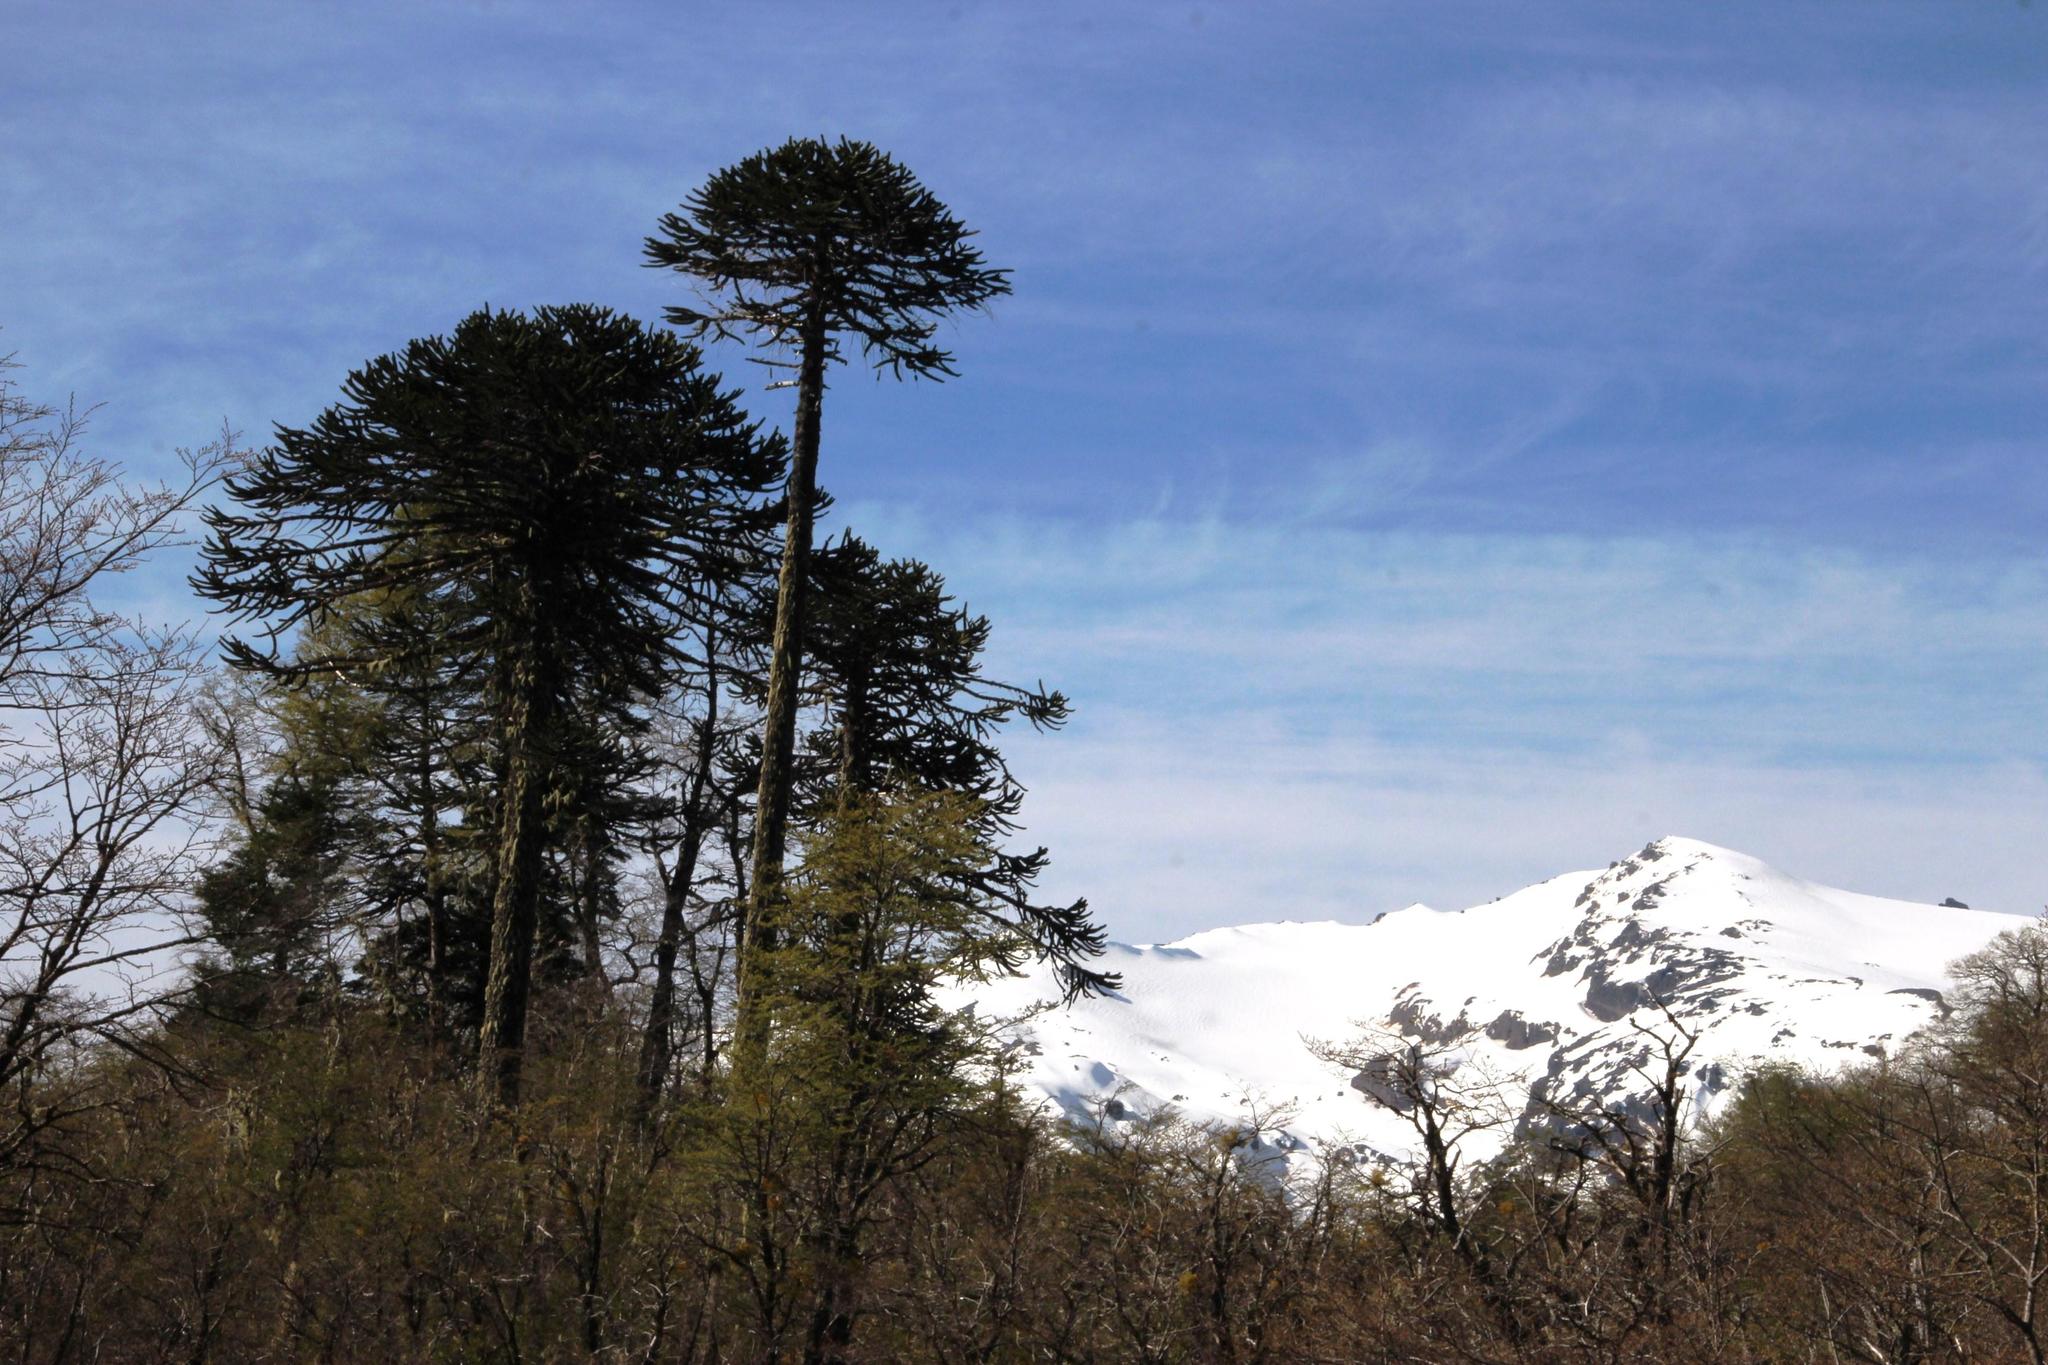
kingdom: Plantae
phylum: Tracheophyta
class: Pinopsida
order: Pinales
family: Araucariaceae
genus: Araucaria
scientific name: Araucaria araucana
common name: Monkey-puzzle
